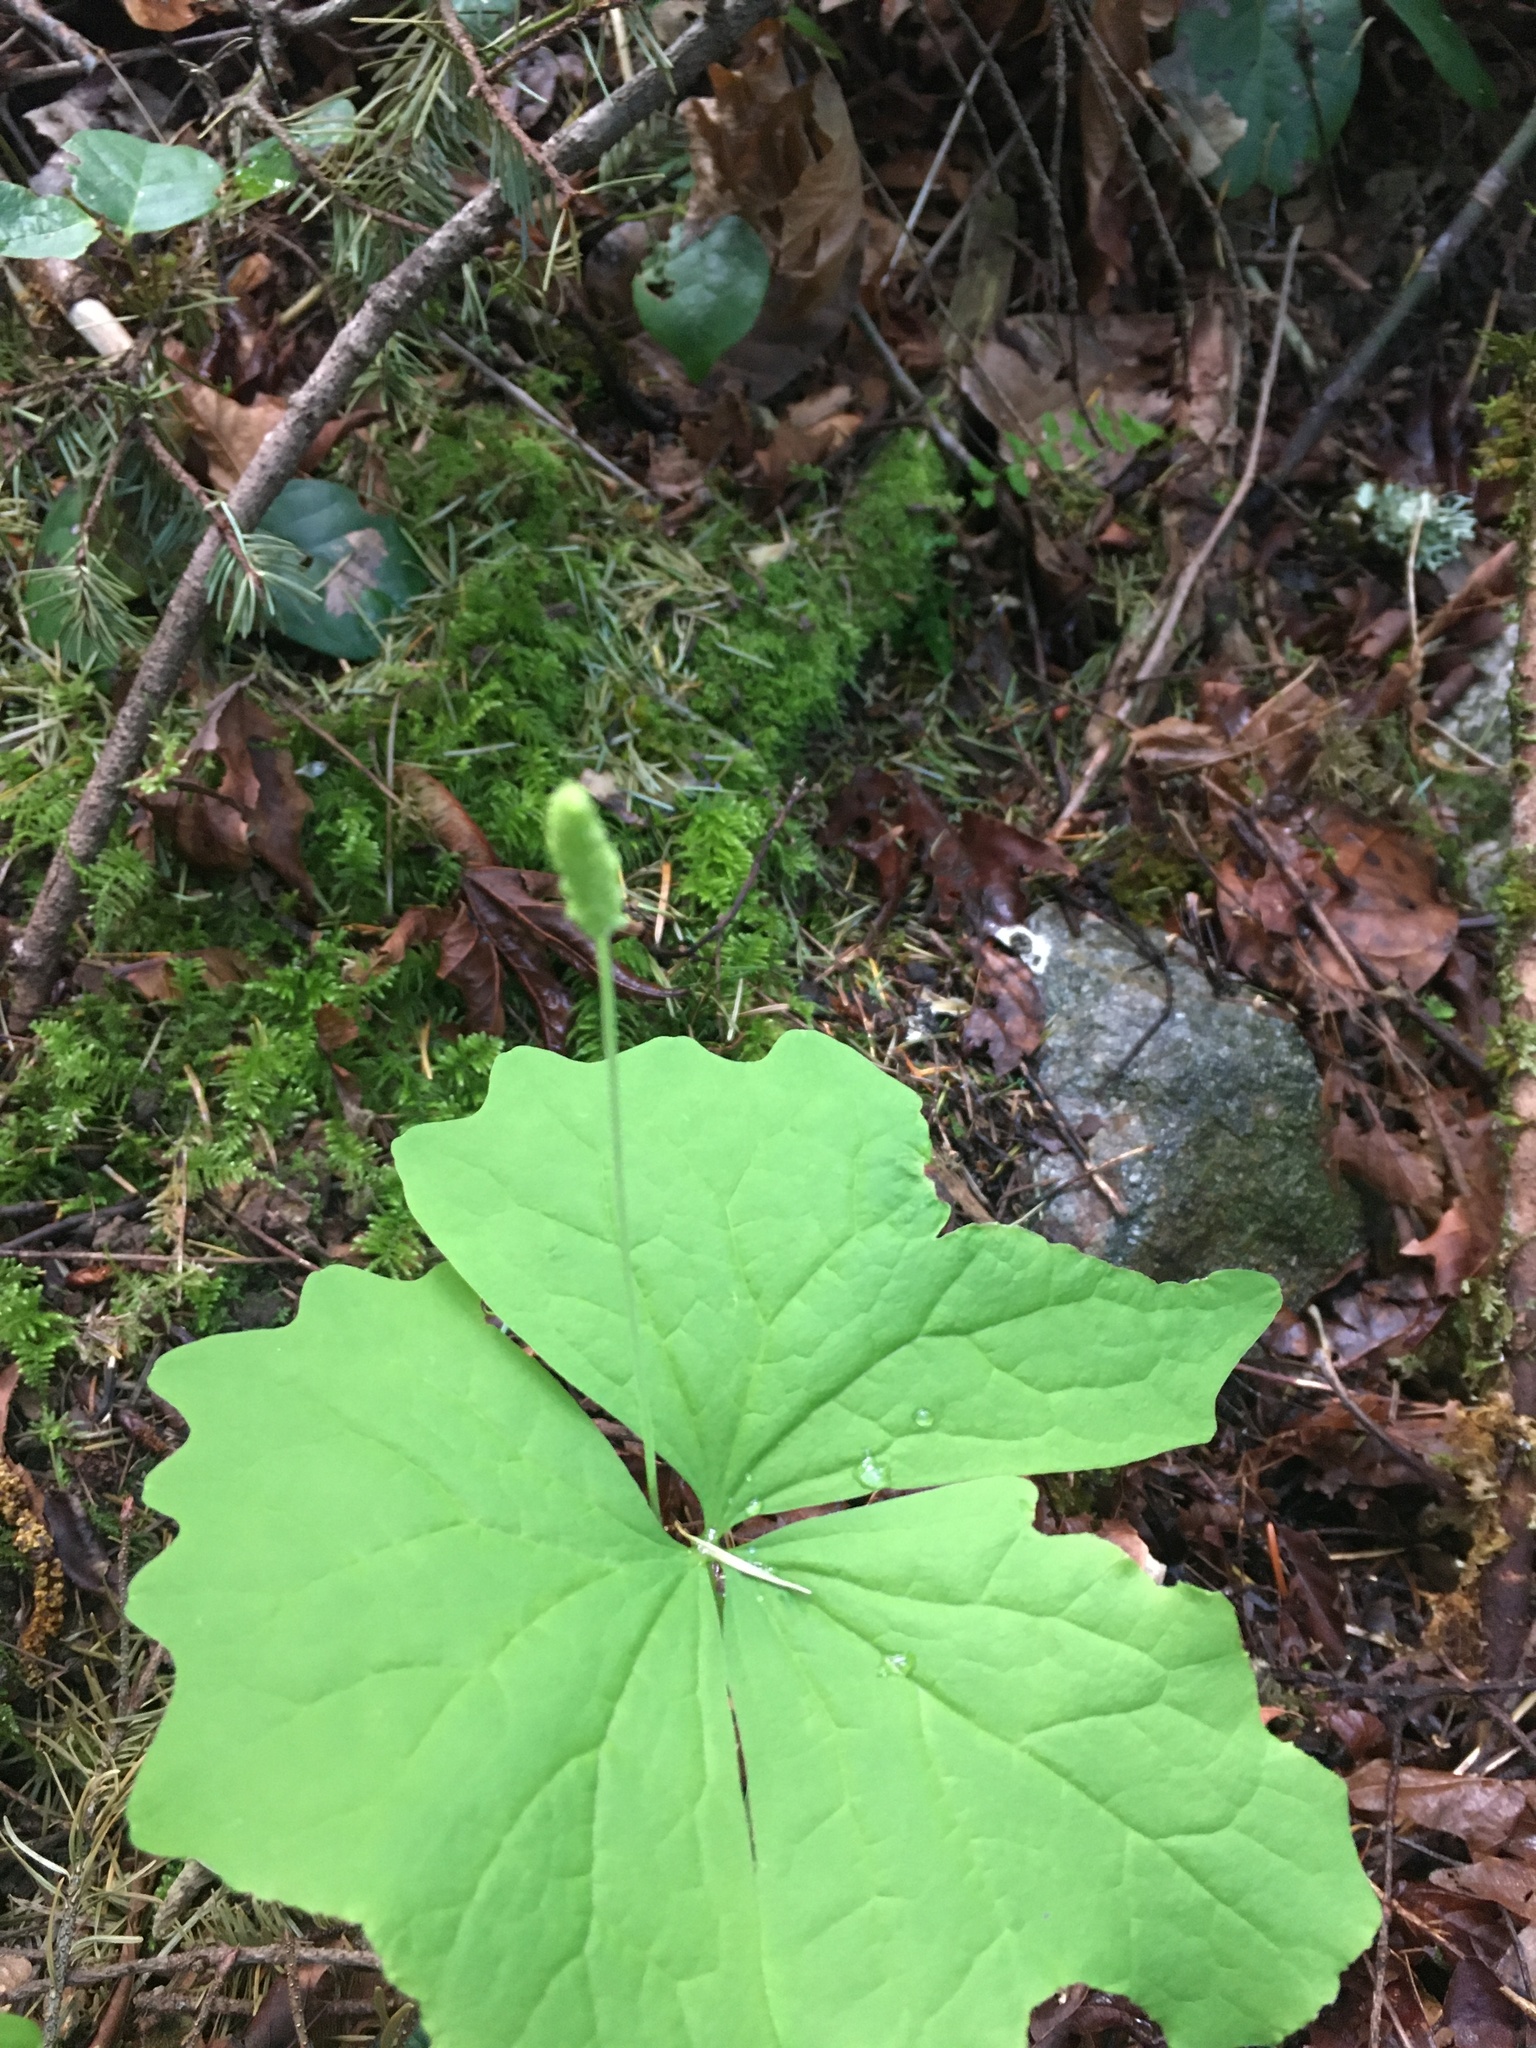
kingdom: Plantae
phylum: Tracheophyta
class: Magnoliopsida
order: Ranunculales
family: Berberidaceae
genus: Achlys
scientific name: Achlys triphylla
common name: Vanilla-leaf
